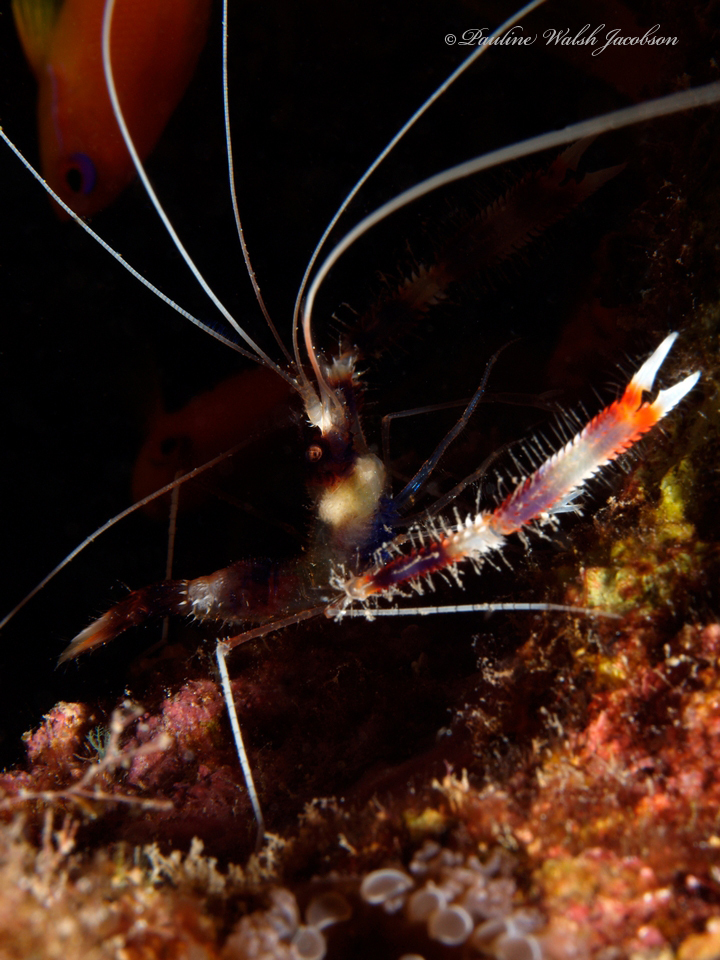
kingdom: Animalia
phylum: Arthropoda
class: Malacostraca
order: Decapoda
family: Stenopodidae
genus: Stenopus
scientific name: Stenopus hispidus
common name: Banded coral shrimp
